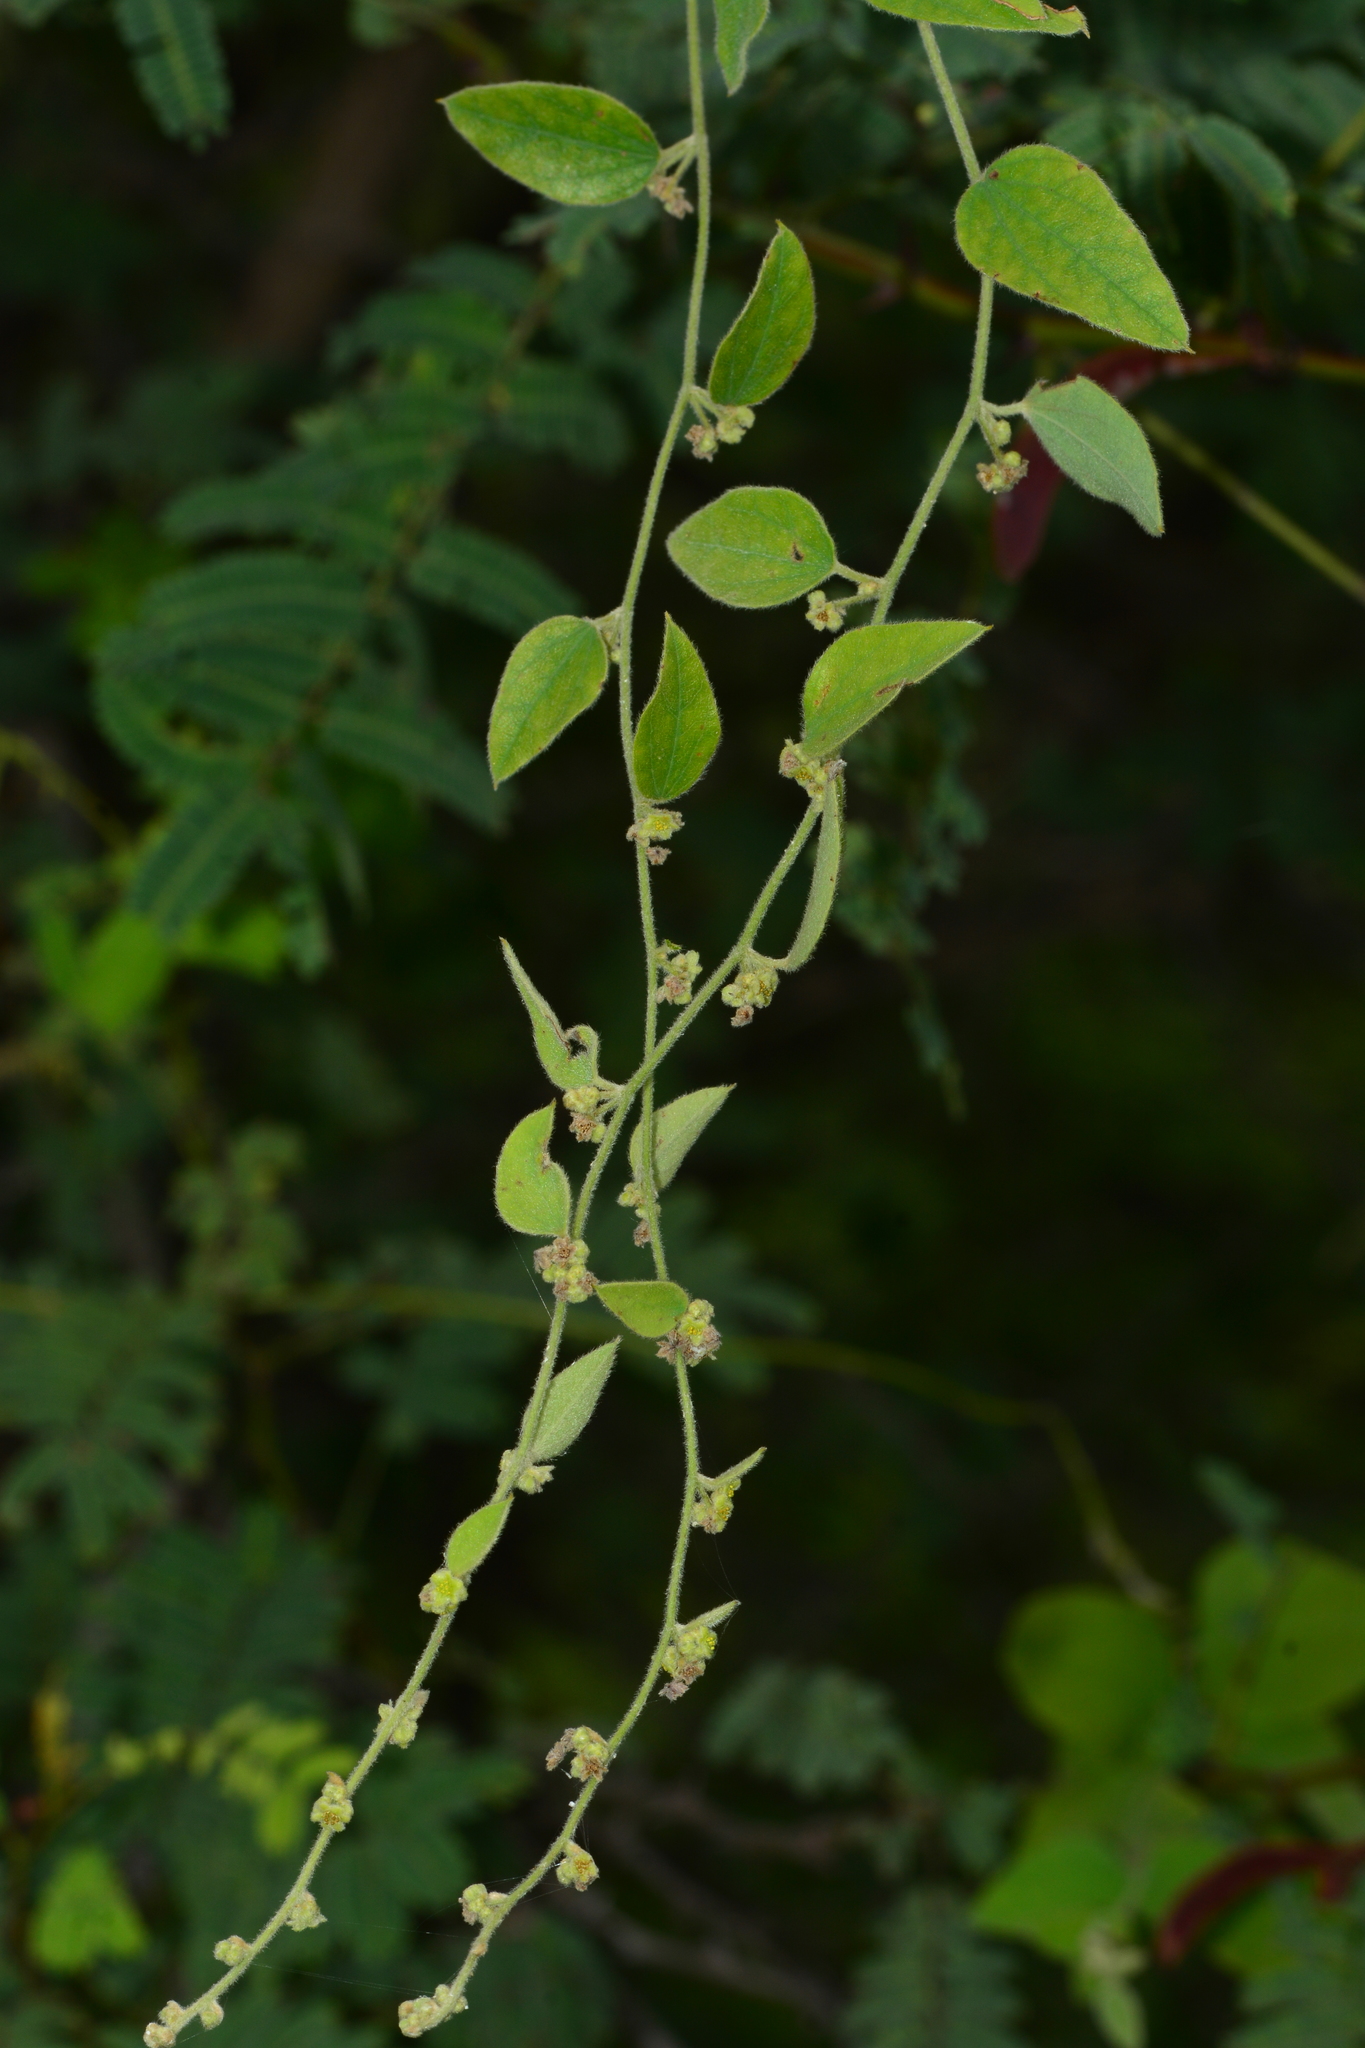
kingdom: Plantae
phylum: Tracheophyta
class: Magnoliopsida
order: Ranunculales
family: Menispermaceae
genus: Cocculus
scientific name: Cocculus hirsutus
